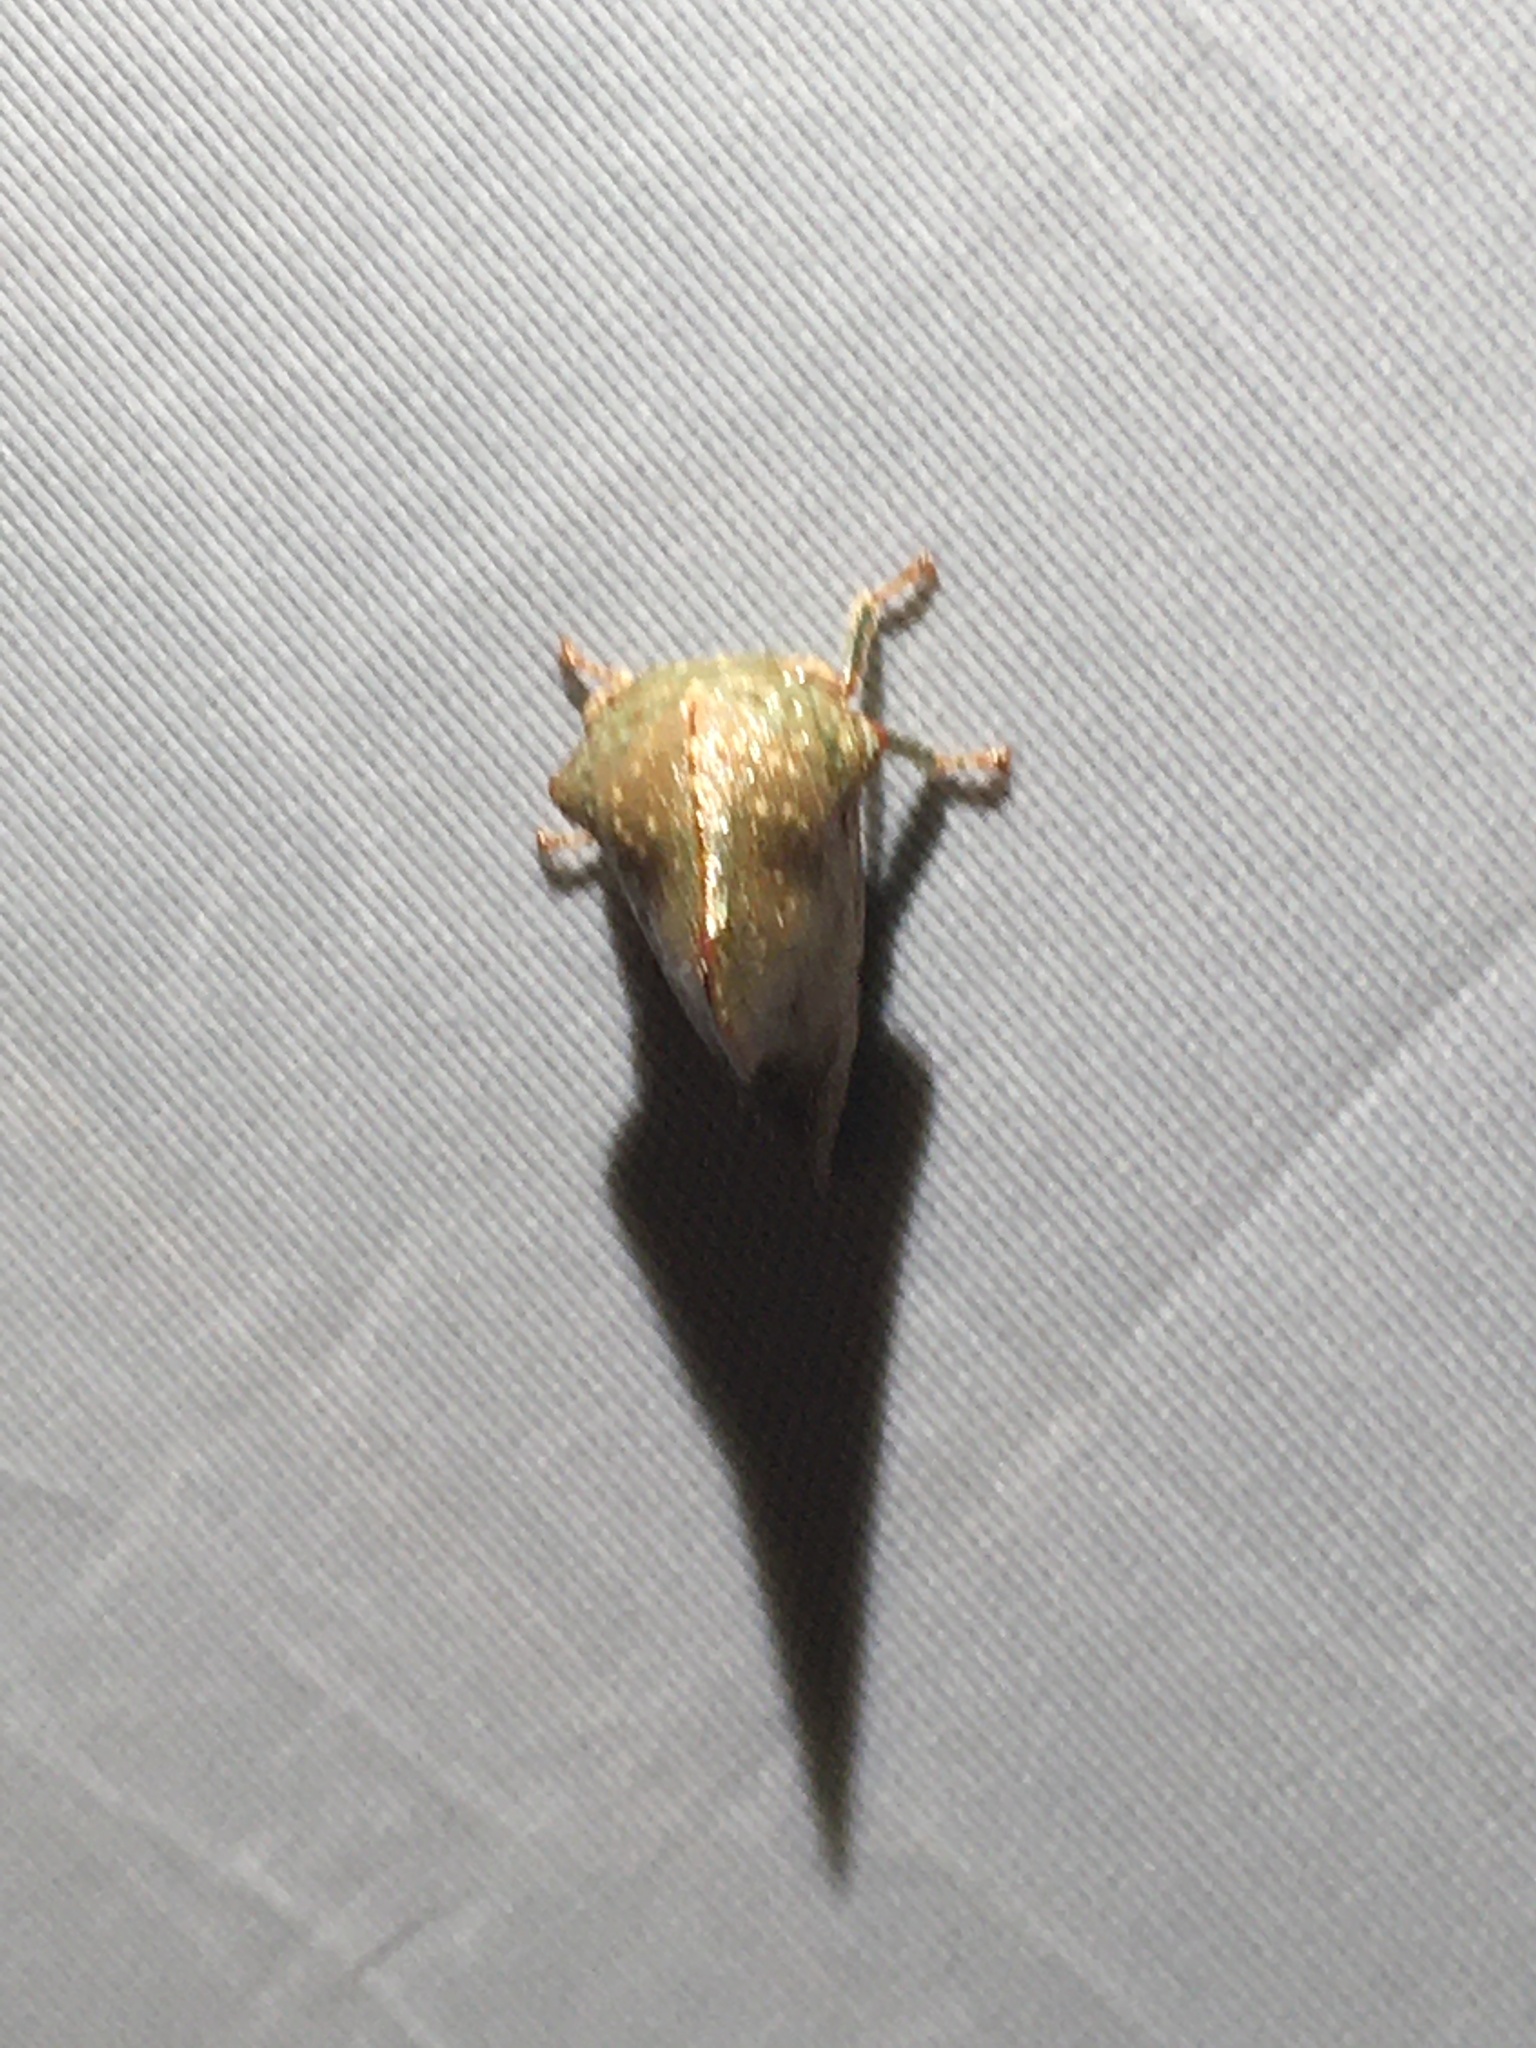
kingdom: Animalia
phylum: Arthropoda
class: Insecta
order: Hemiptera
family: Membracidae
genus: Telamona
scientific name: Telamona monticola
